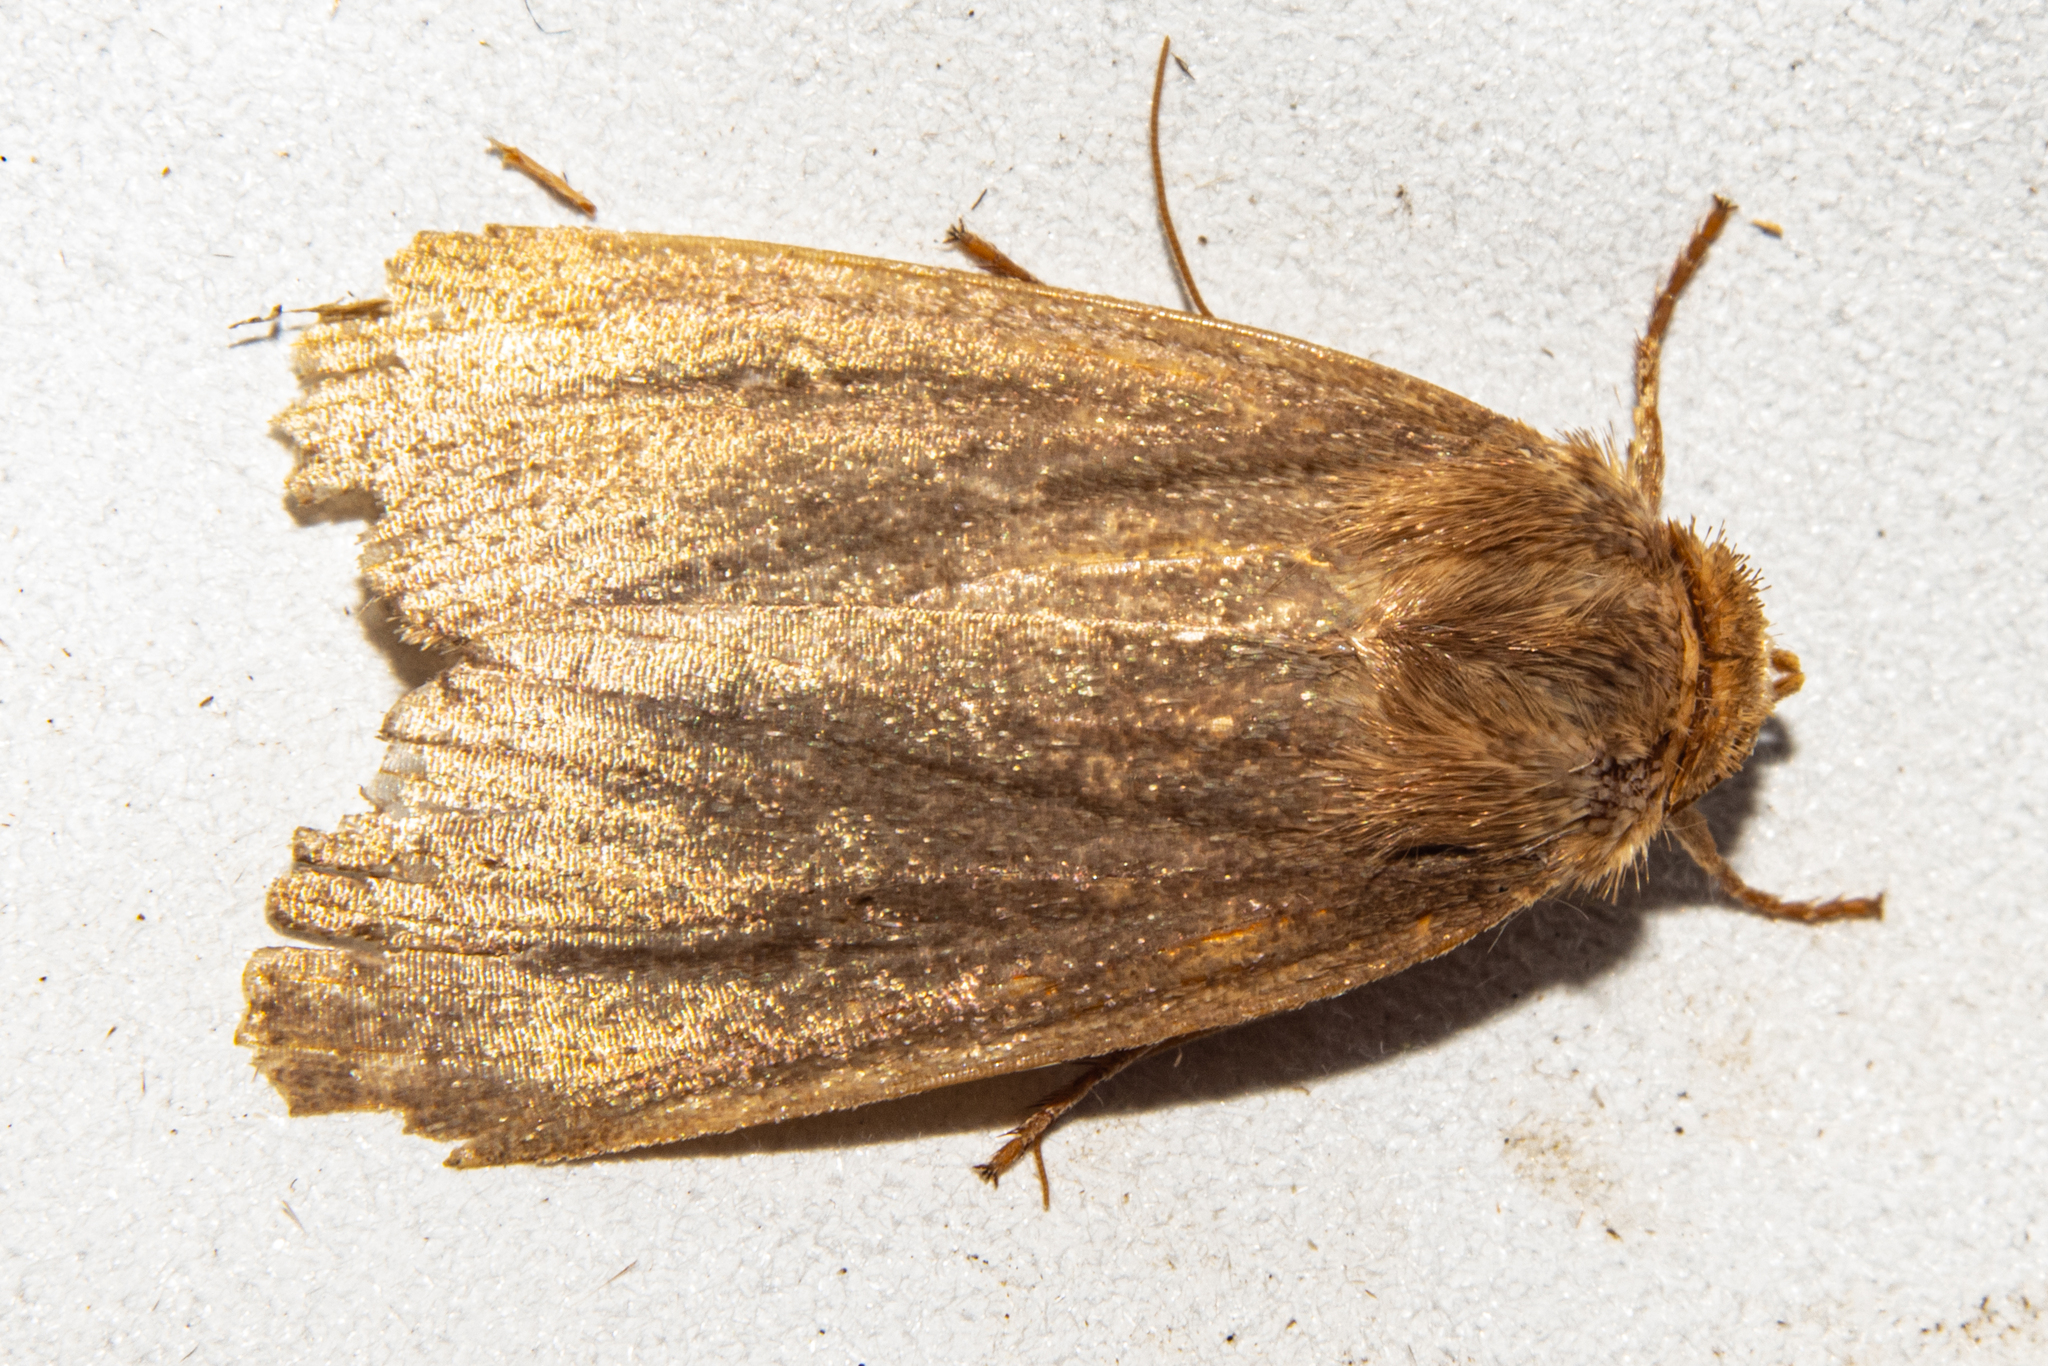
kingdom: Animalia
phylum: Arthropoda
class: Insecta
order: Lepidoptera
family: Noctuidae
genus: Bityla
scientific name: Bityla defigurata
